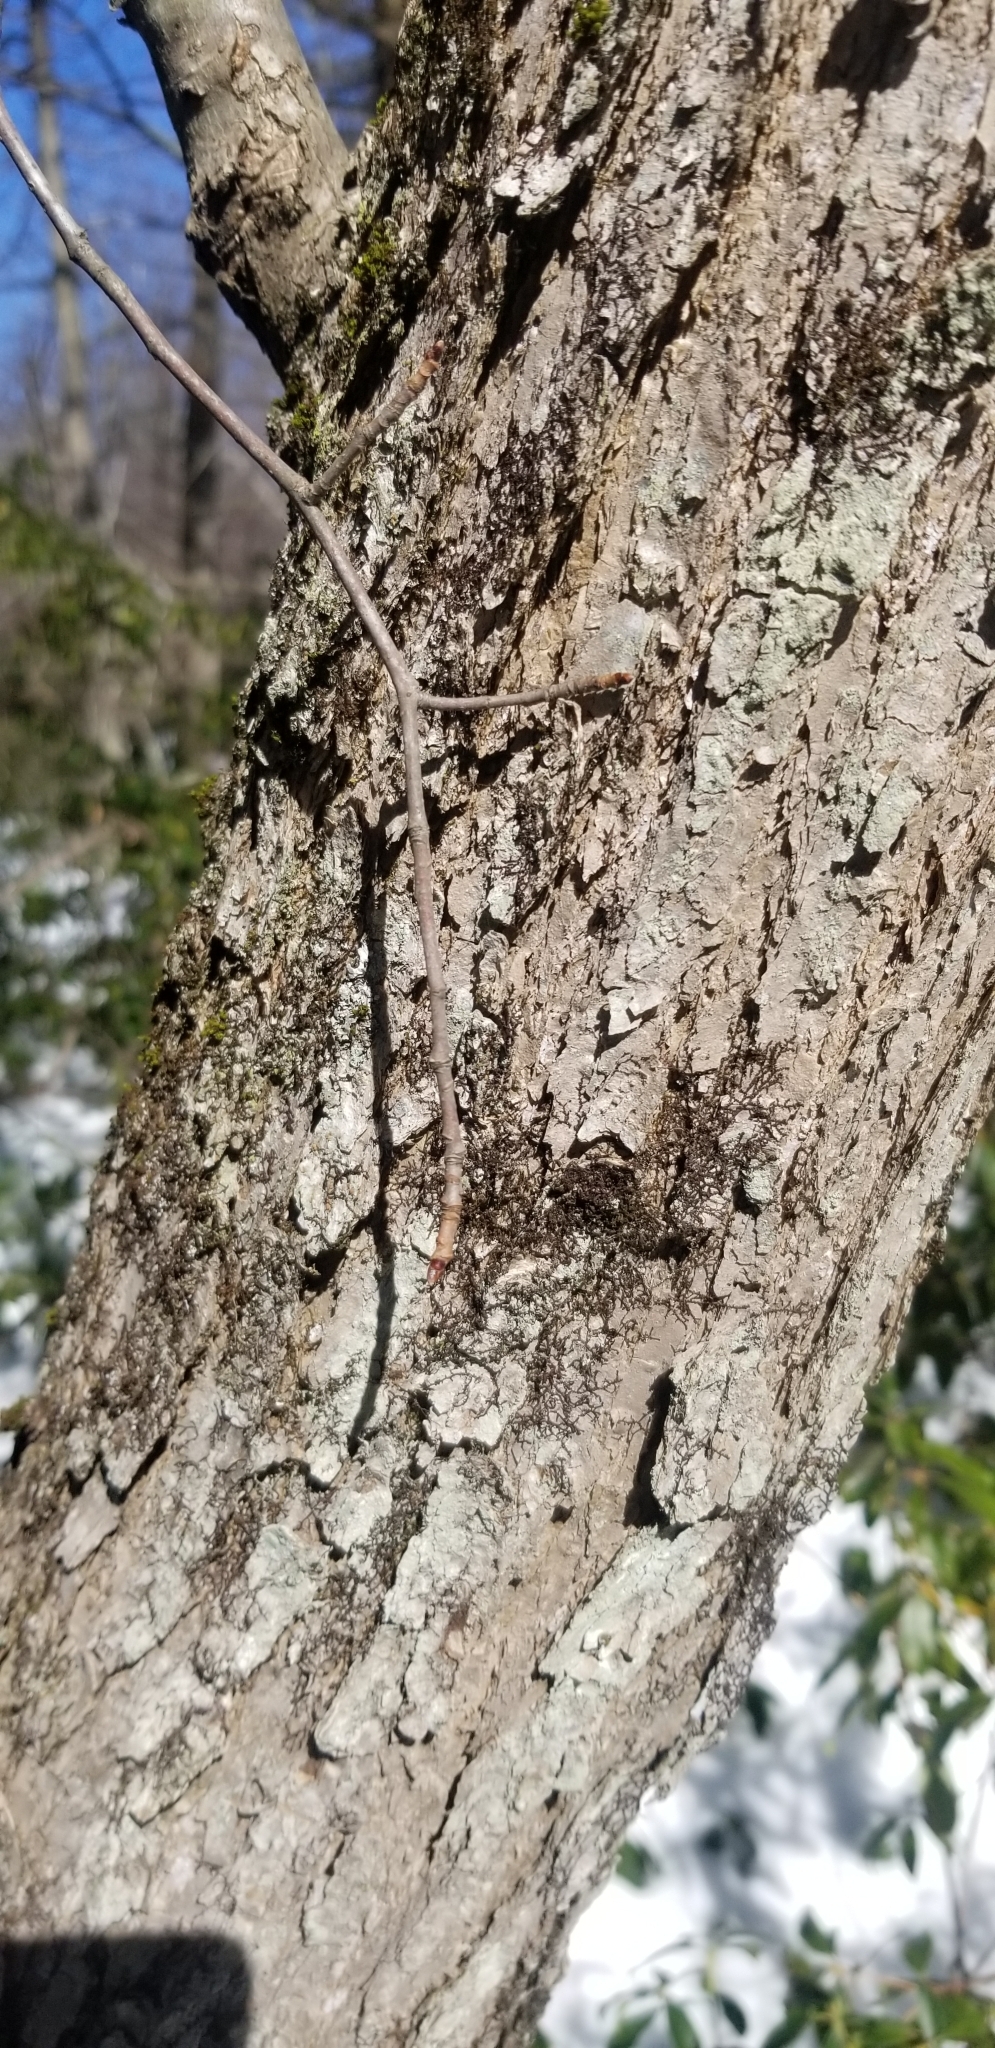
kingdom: Plantae
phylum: Tracheophyta
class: Magnoliopsida
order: Cornales
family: Nyssaceae
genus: Nyssa
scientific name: Nyssa sylvatica
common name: Black tupelo
